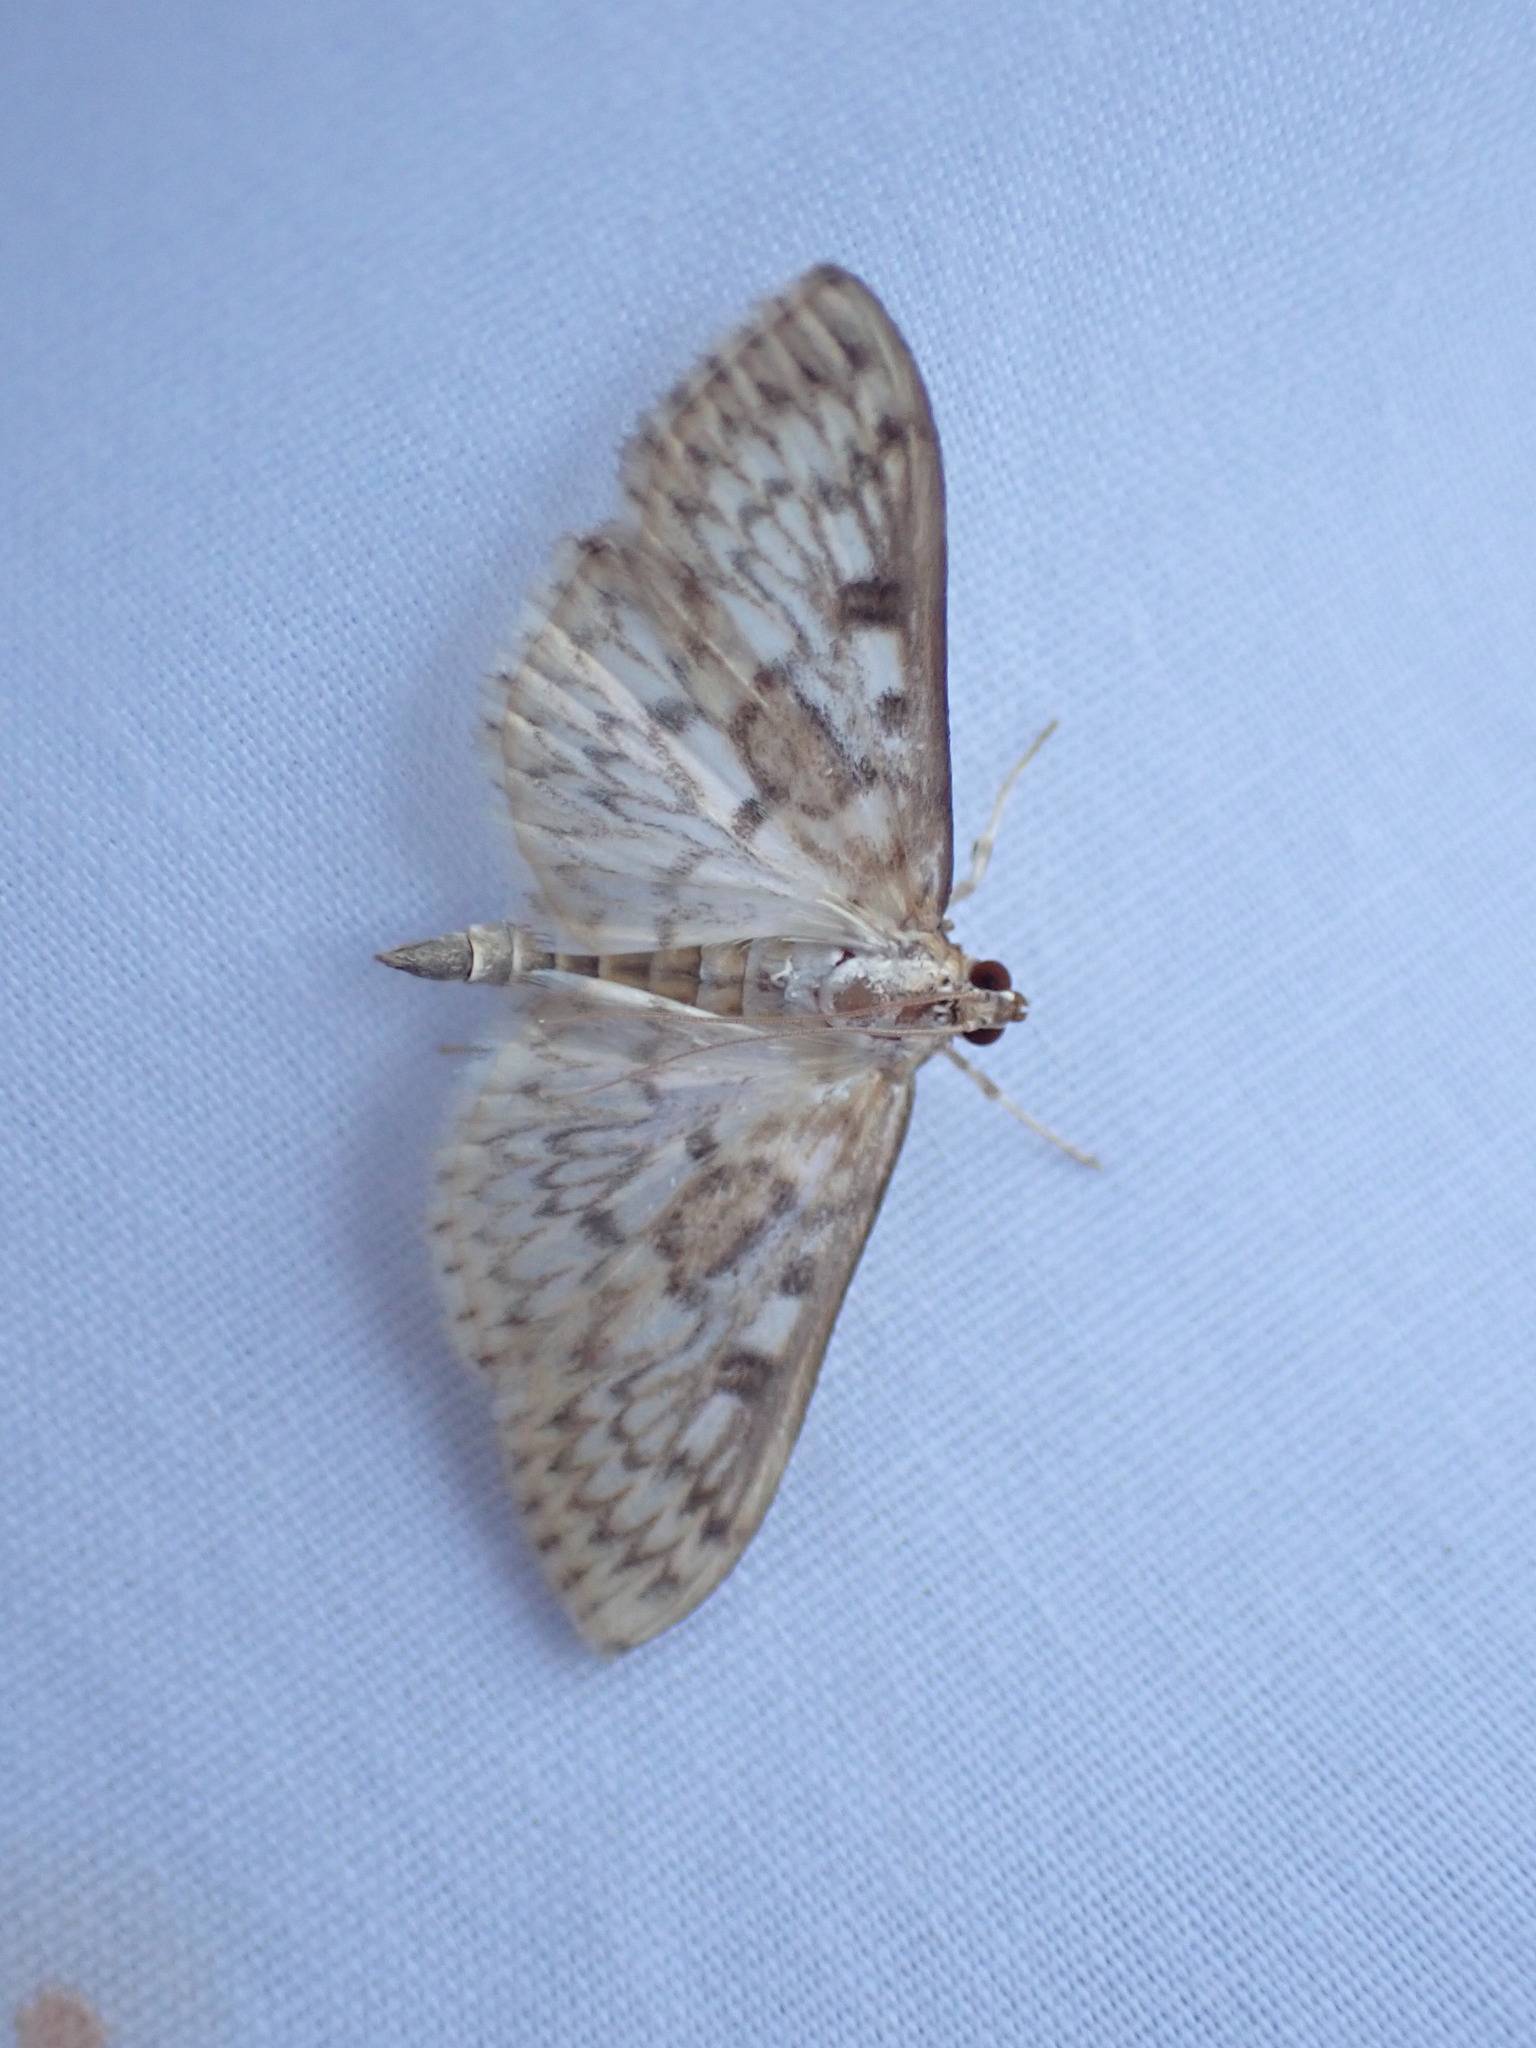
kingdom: Animalia
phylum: Arthropoda
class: Insecta
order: Lepidoptera
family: Crambidae
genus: Herpetogramma
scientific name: Herpetogramma aquilonalis
